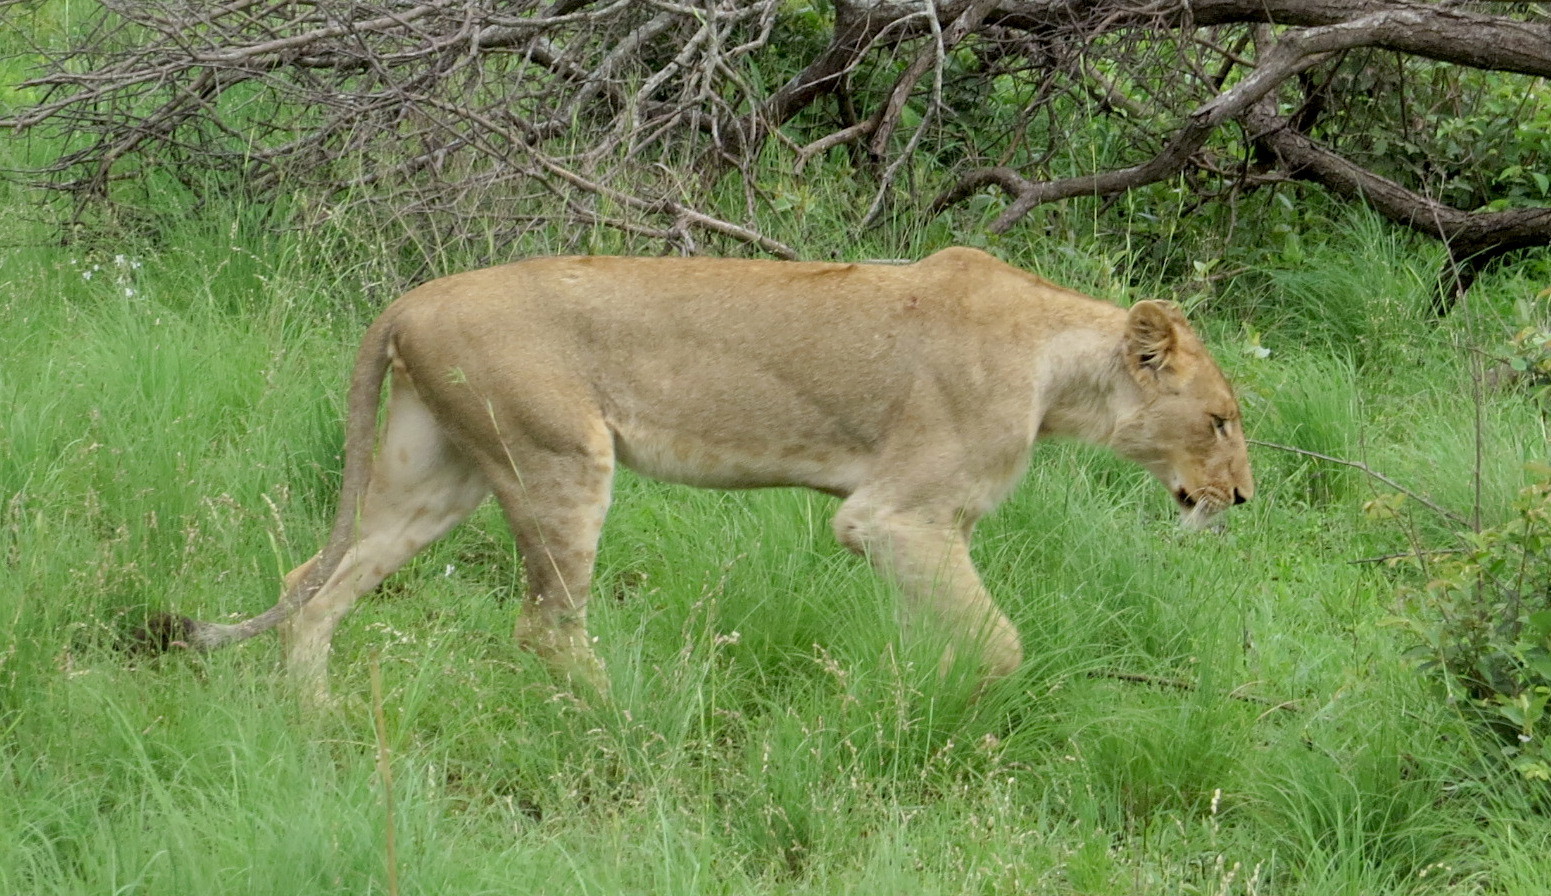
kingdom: Animalia
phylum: Chordata
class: Mammalia
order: Carnivora
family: Felidae
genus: Panthera
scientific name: Panthera leo
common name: Lion
